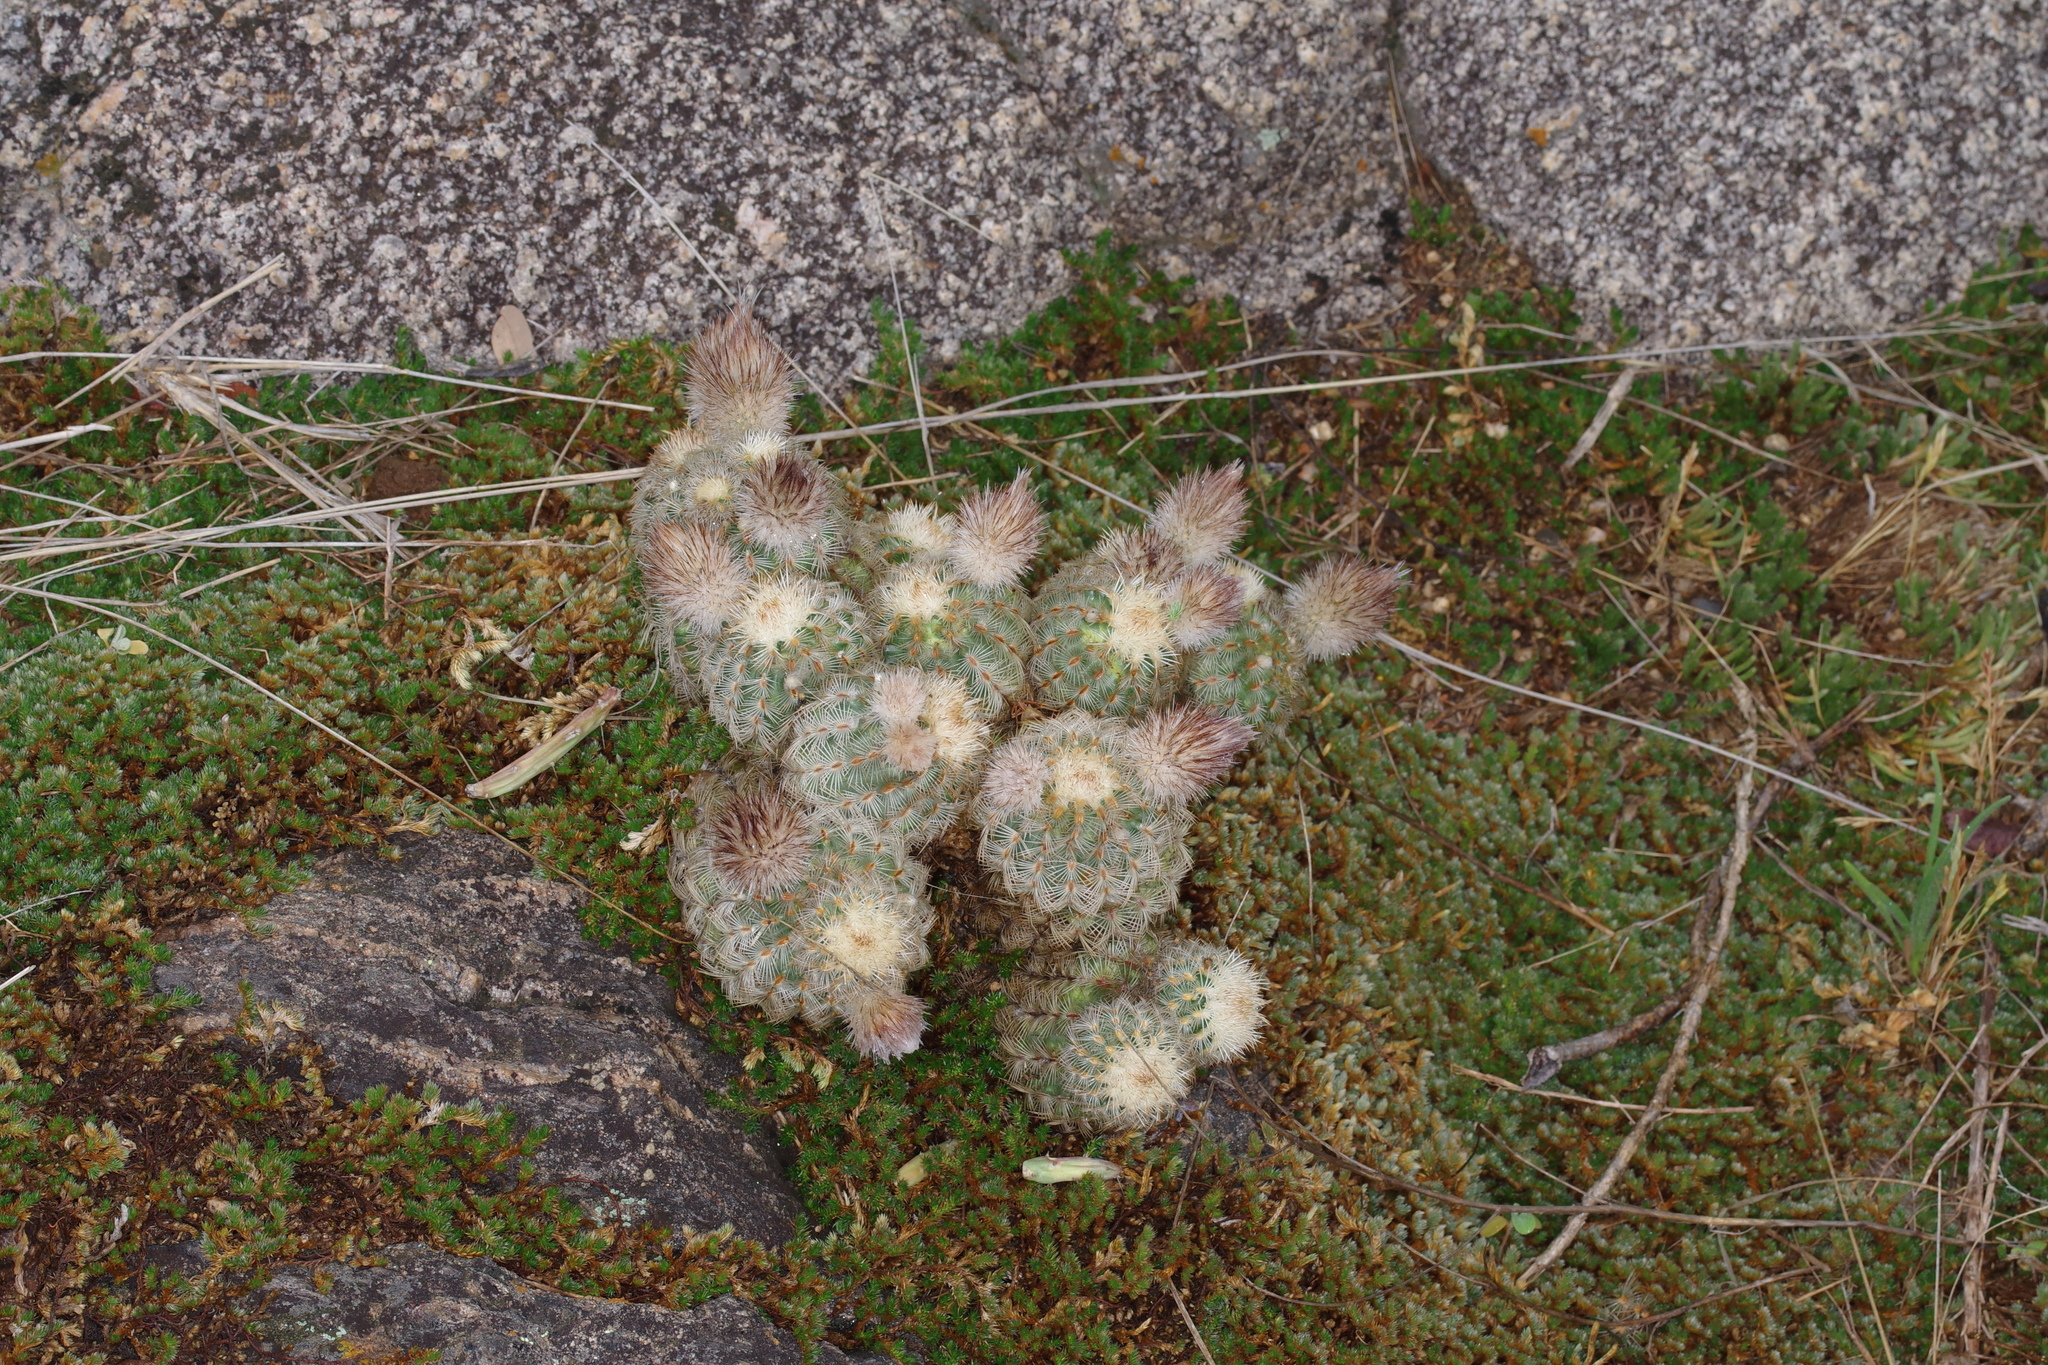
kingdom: Plantae
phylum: Tracheophyta
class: Magnoliopsida
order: Caryophyllales
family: Cactaceae
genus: Echinocereus
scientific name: Echinocereus reichenbachii
